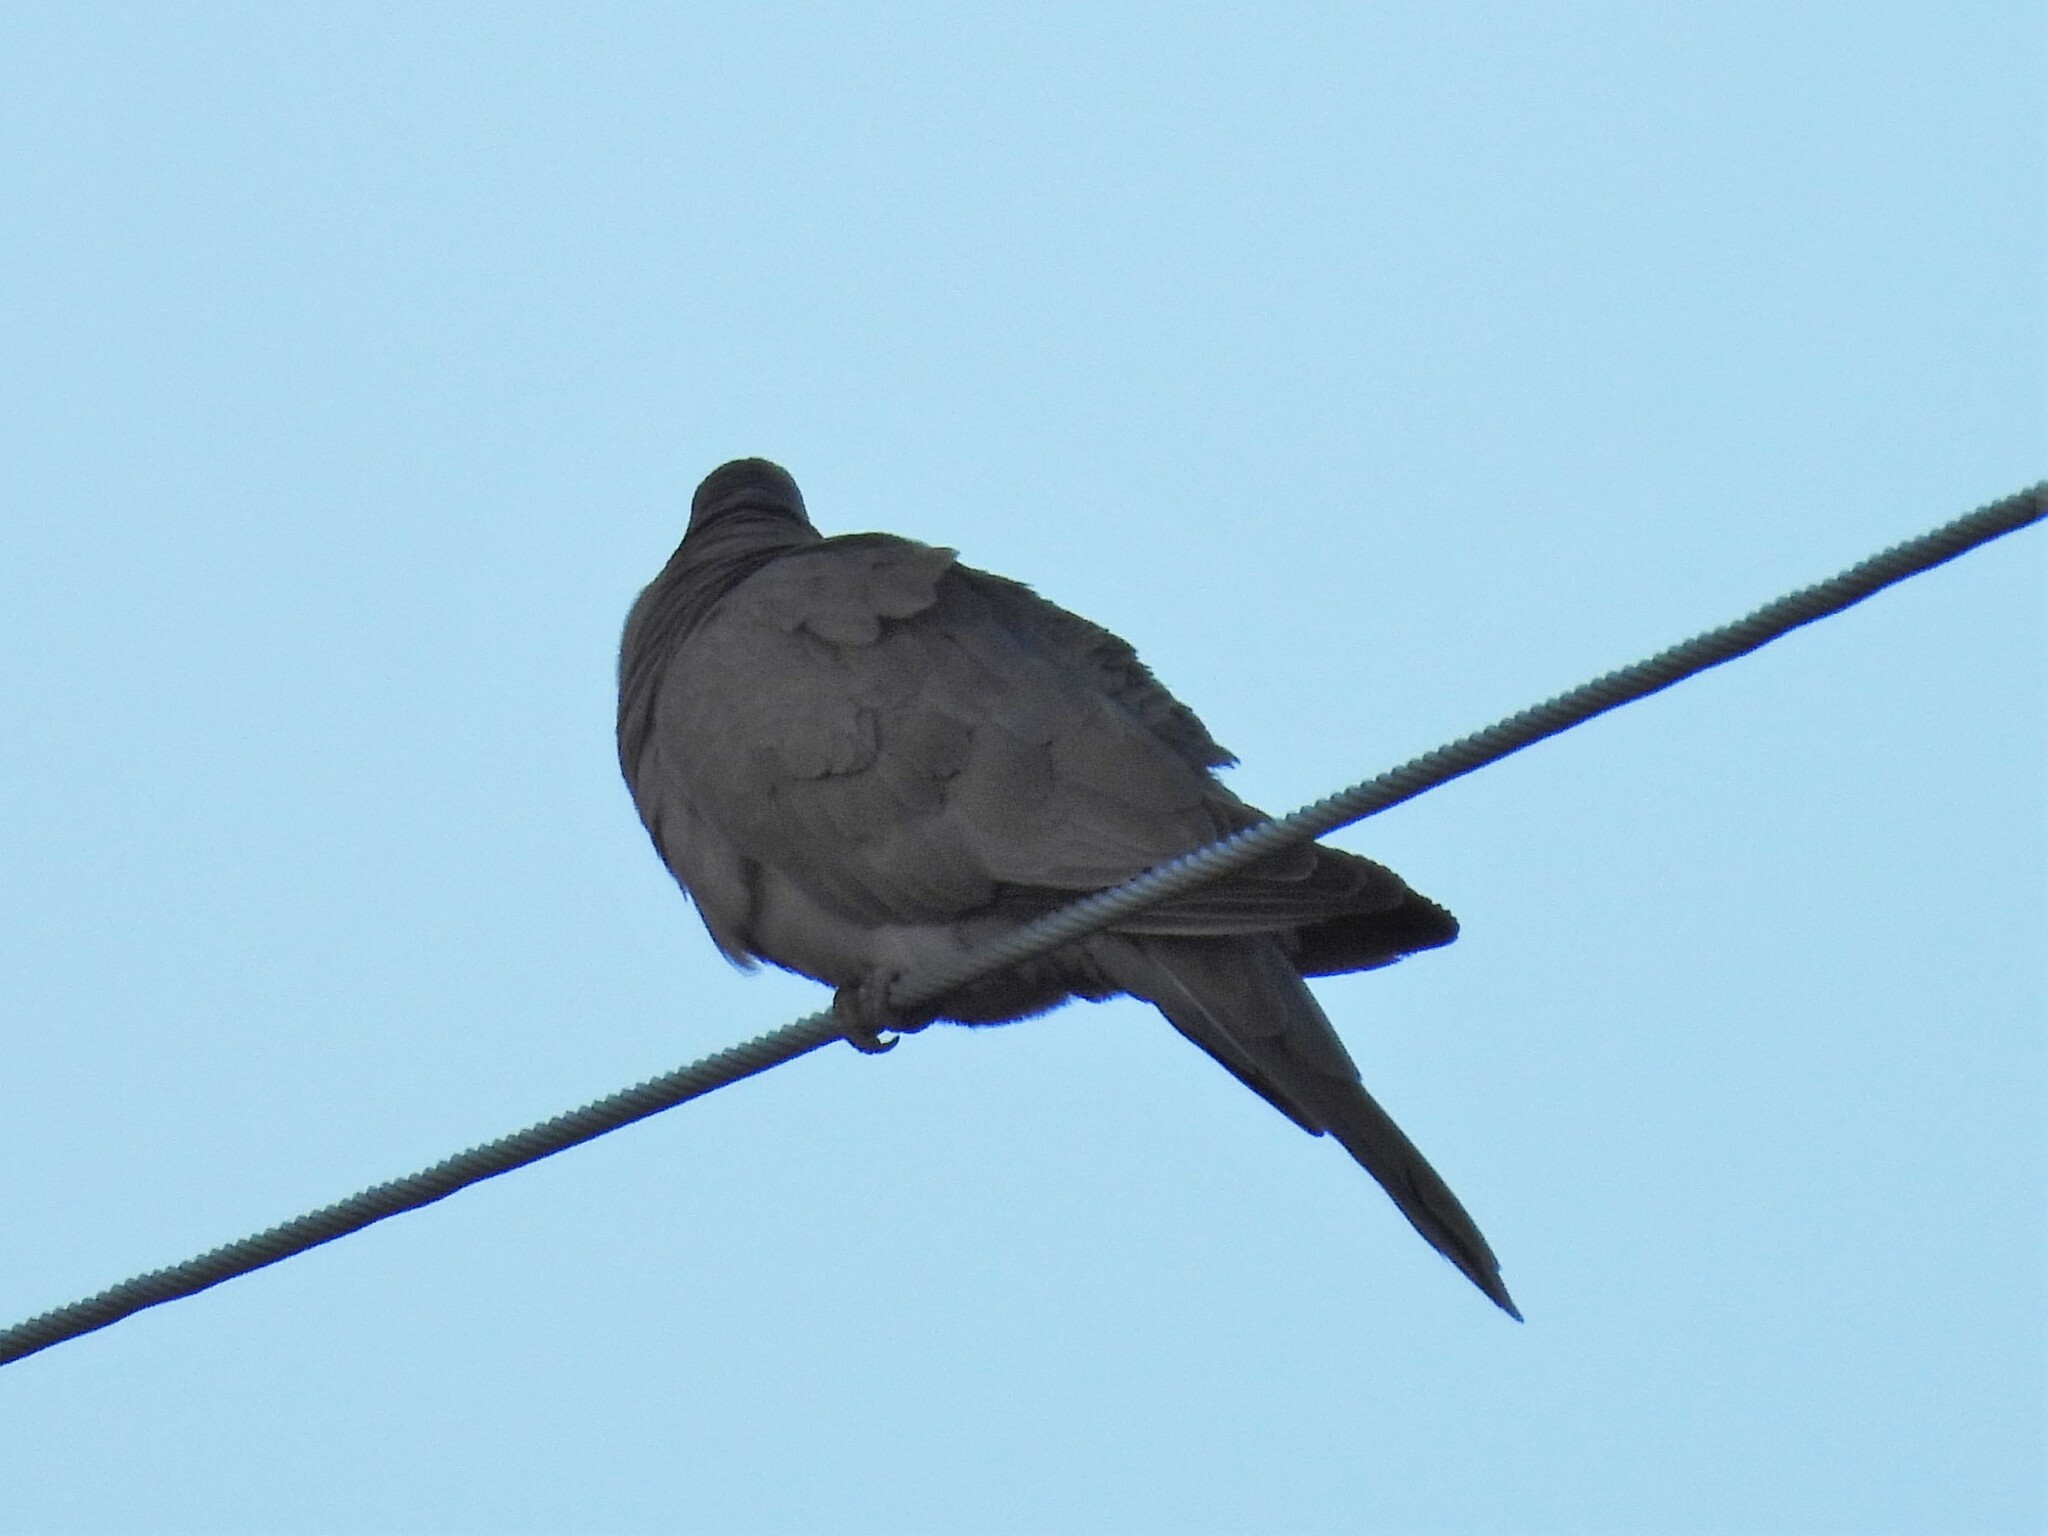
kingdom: Animalia
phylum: Chordata
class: Aves
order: Columbiformes
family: Columbidae
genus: Zenaida
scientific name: Zenaida macroura
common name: Mourning dove
